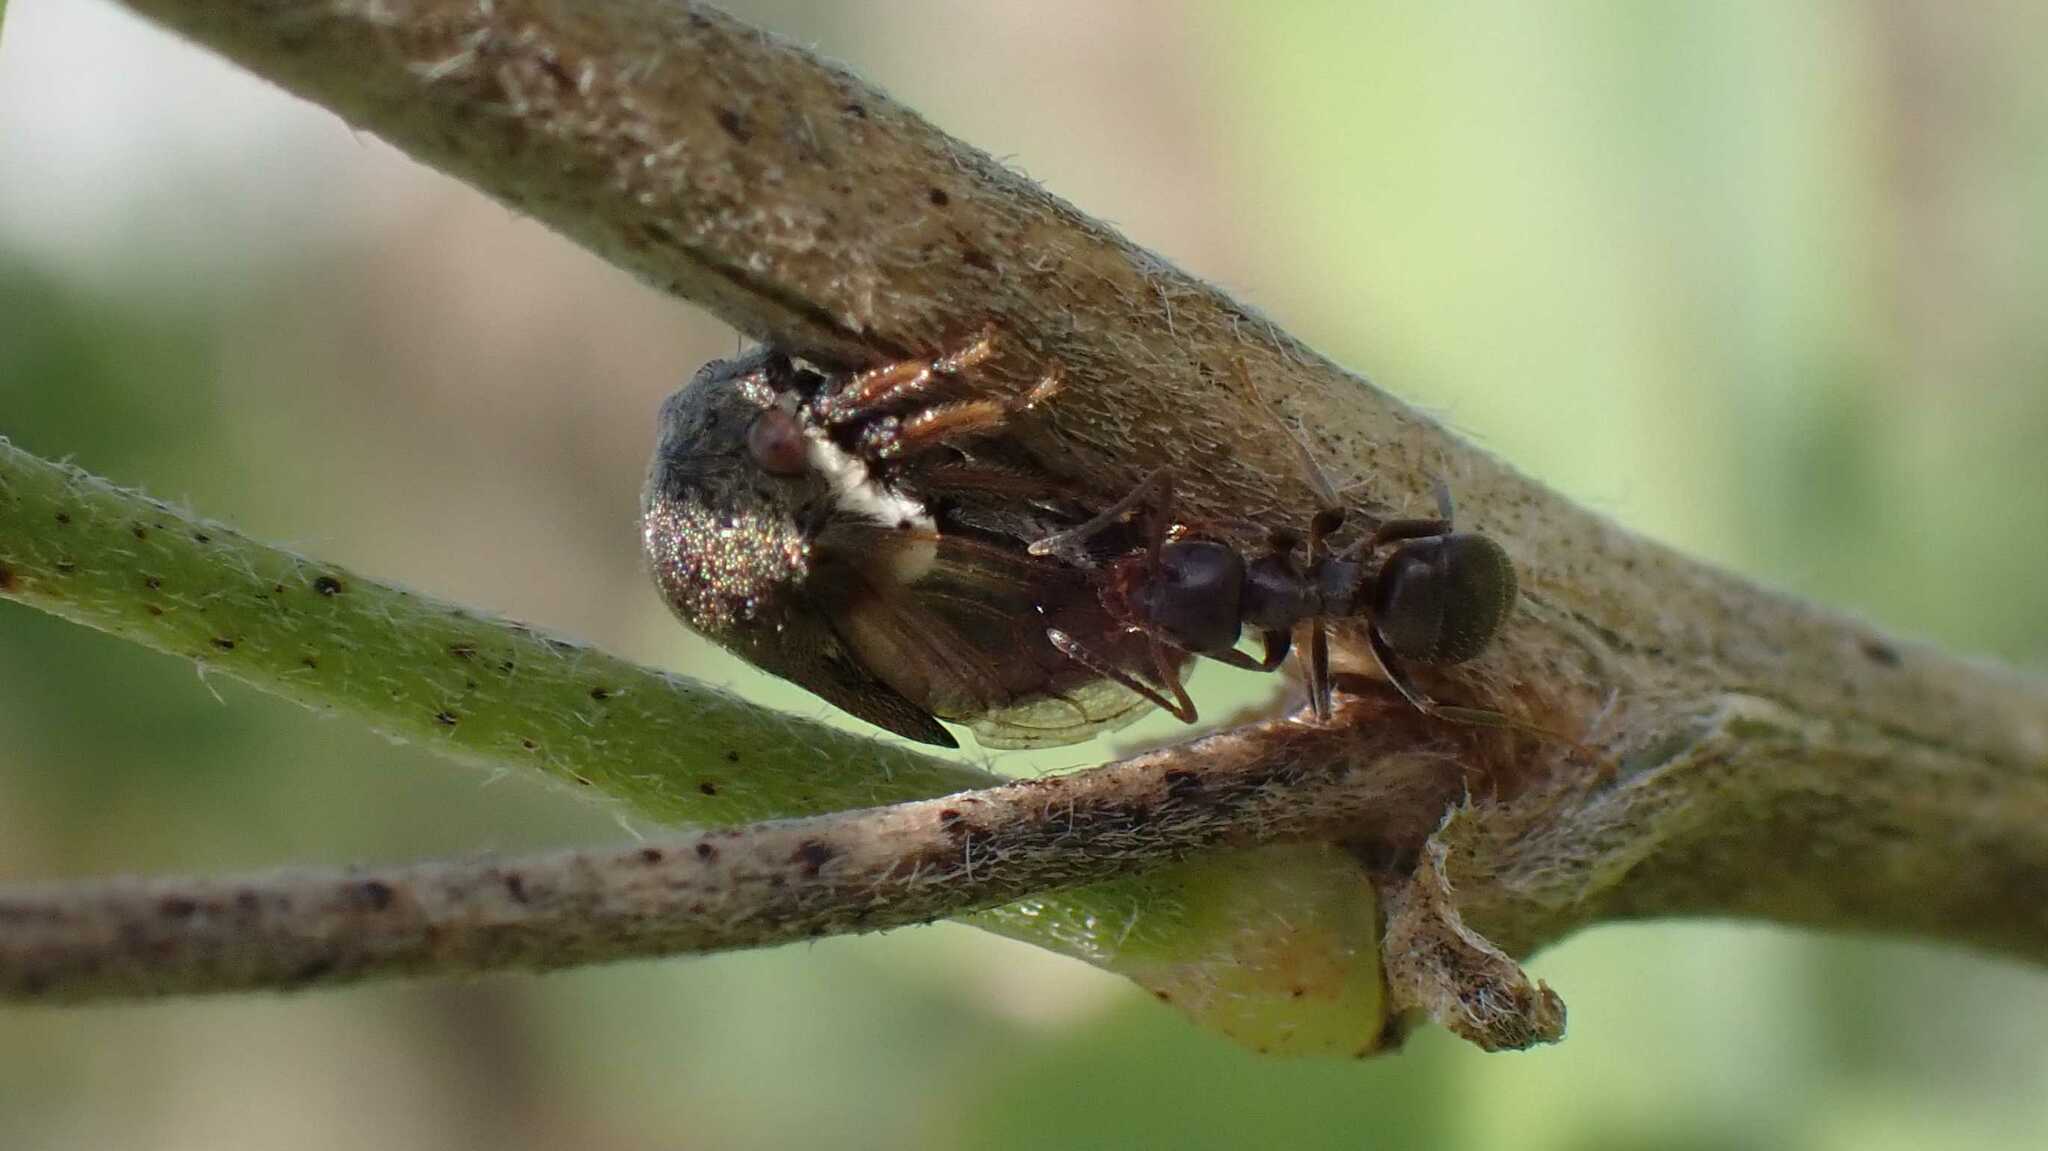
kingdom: Animalia
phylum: Arthropoda
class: Insecta
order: Hemiptera
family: Membracidae
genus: Gargara
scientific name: Gargara genistae
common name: Treehopper
